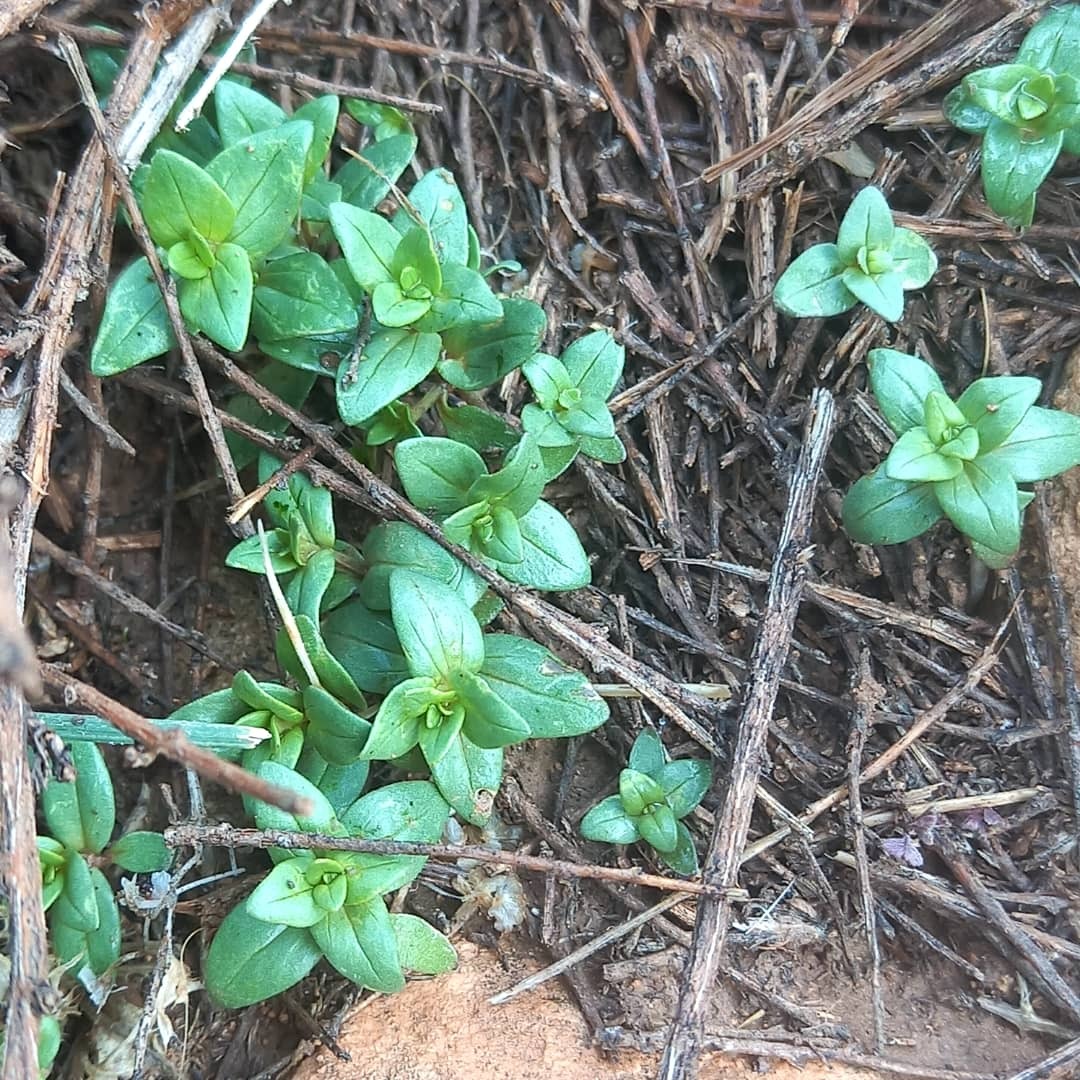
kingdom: Plantae
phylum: Tracheophyta
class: Magnoliopsida
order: Ericales
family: Primulaceae
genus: Lysimachia
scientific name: Lysimachia Anagallis spec
